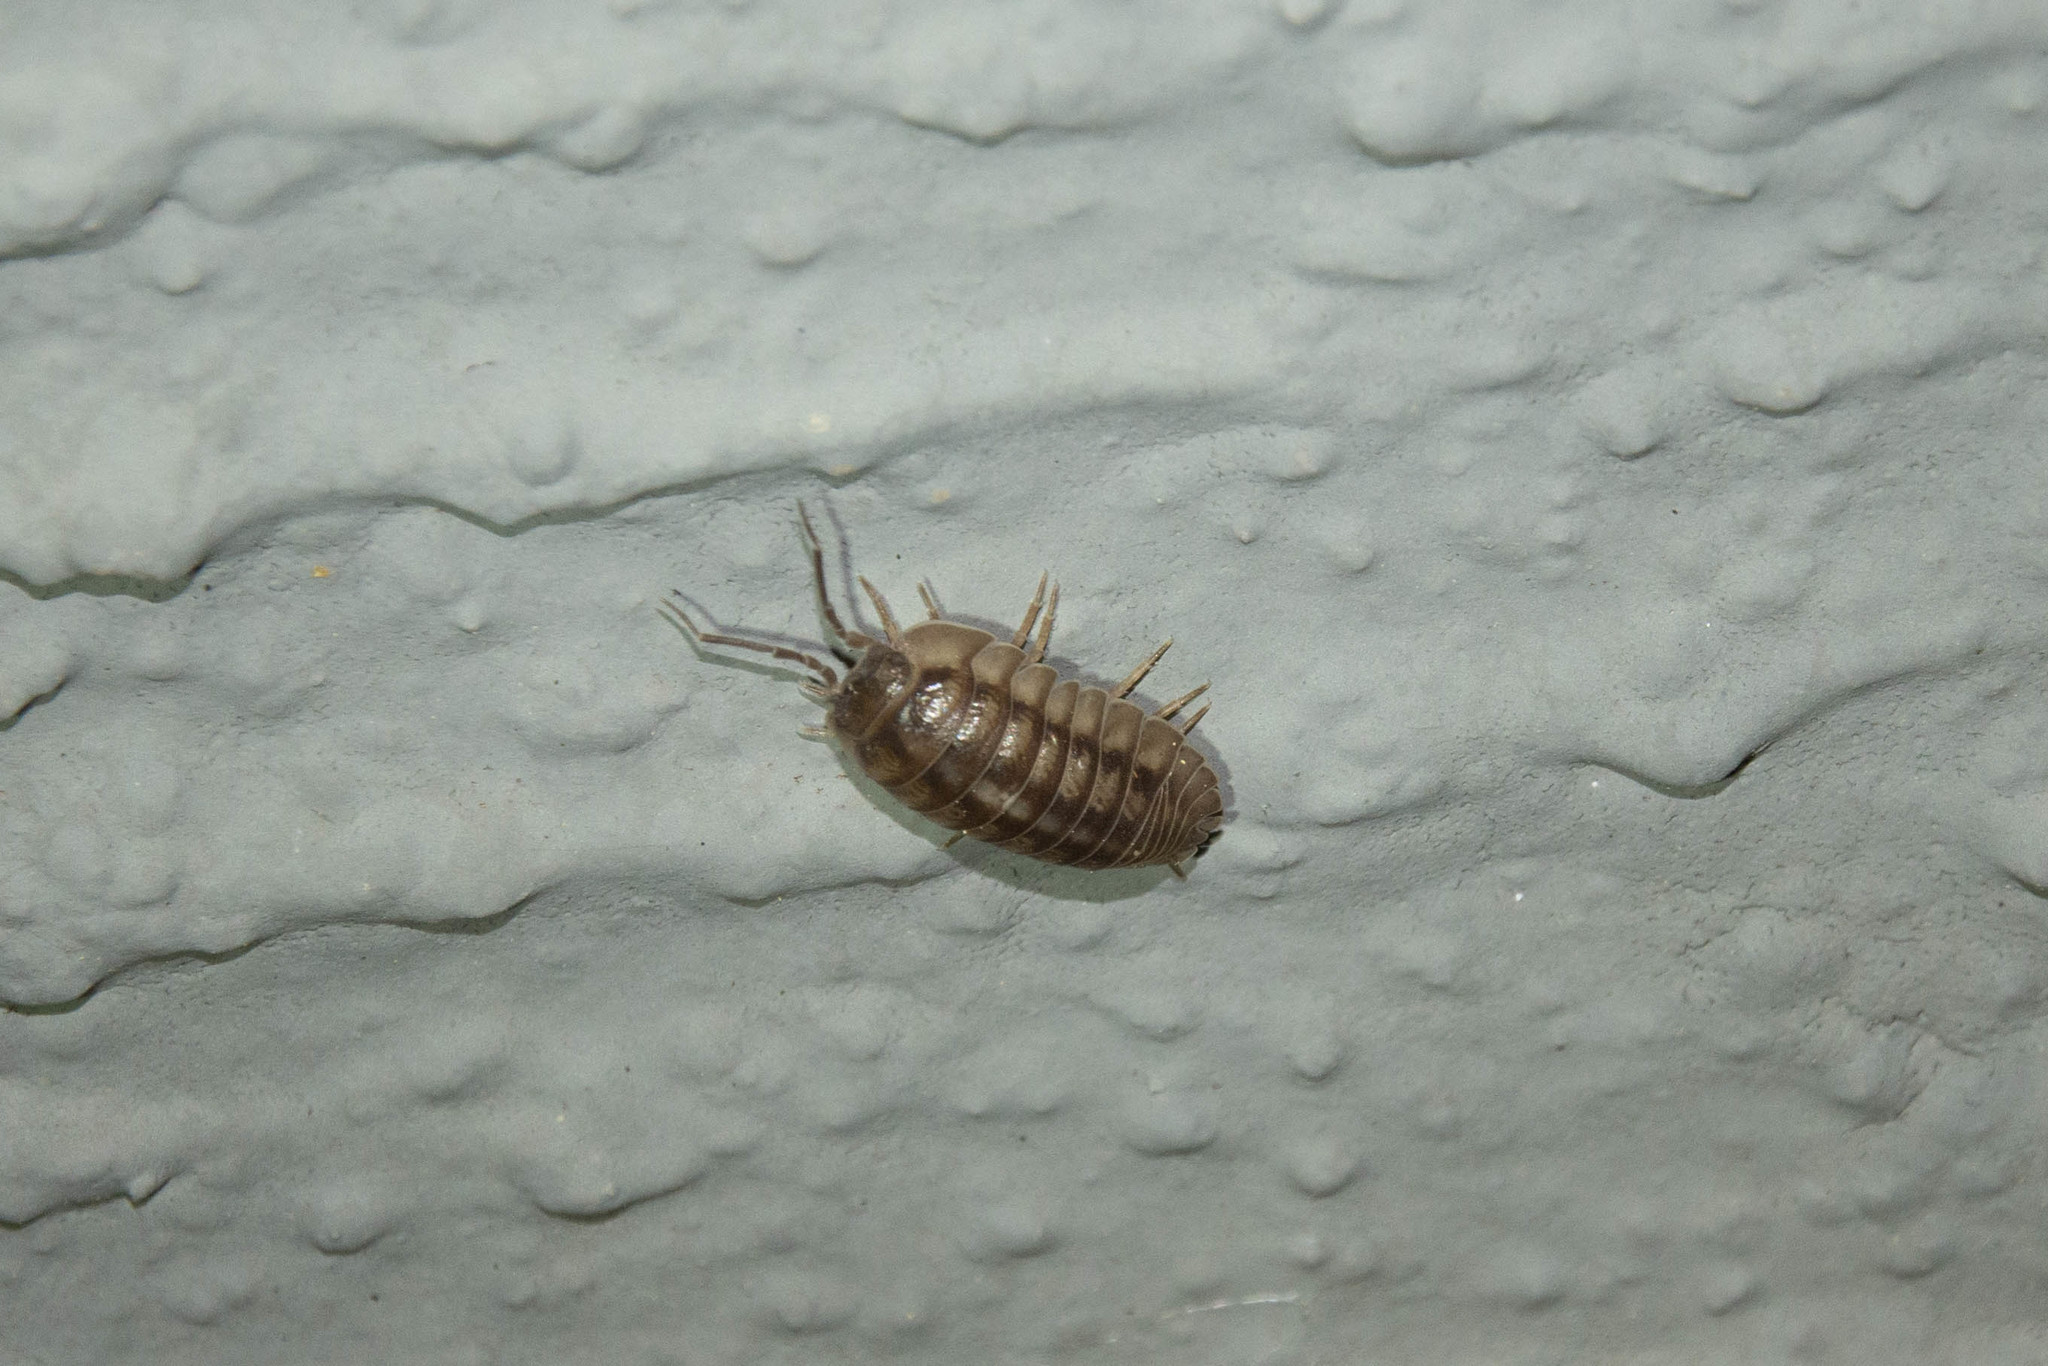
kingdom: Animalia
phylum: Arthropoda
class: Malacostraca
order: Isopoda
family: Armadillidiidae
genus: Armadillidium
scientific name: Armadillidium nasatum
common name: Isopod
